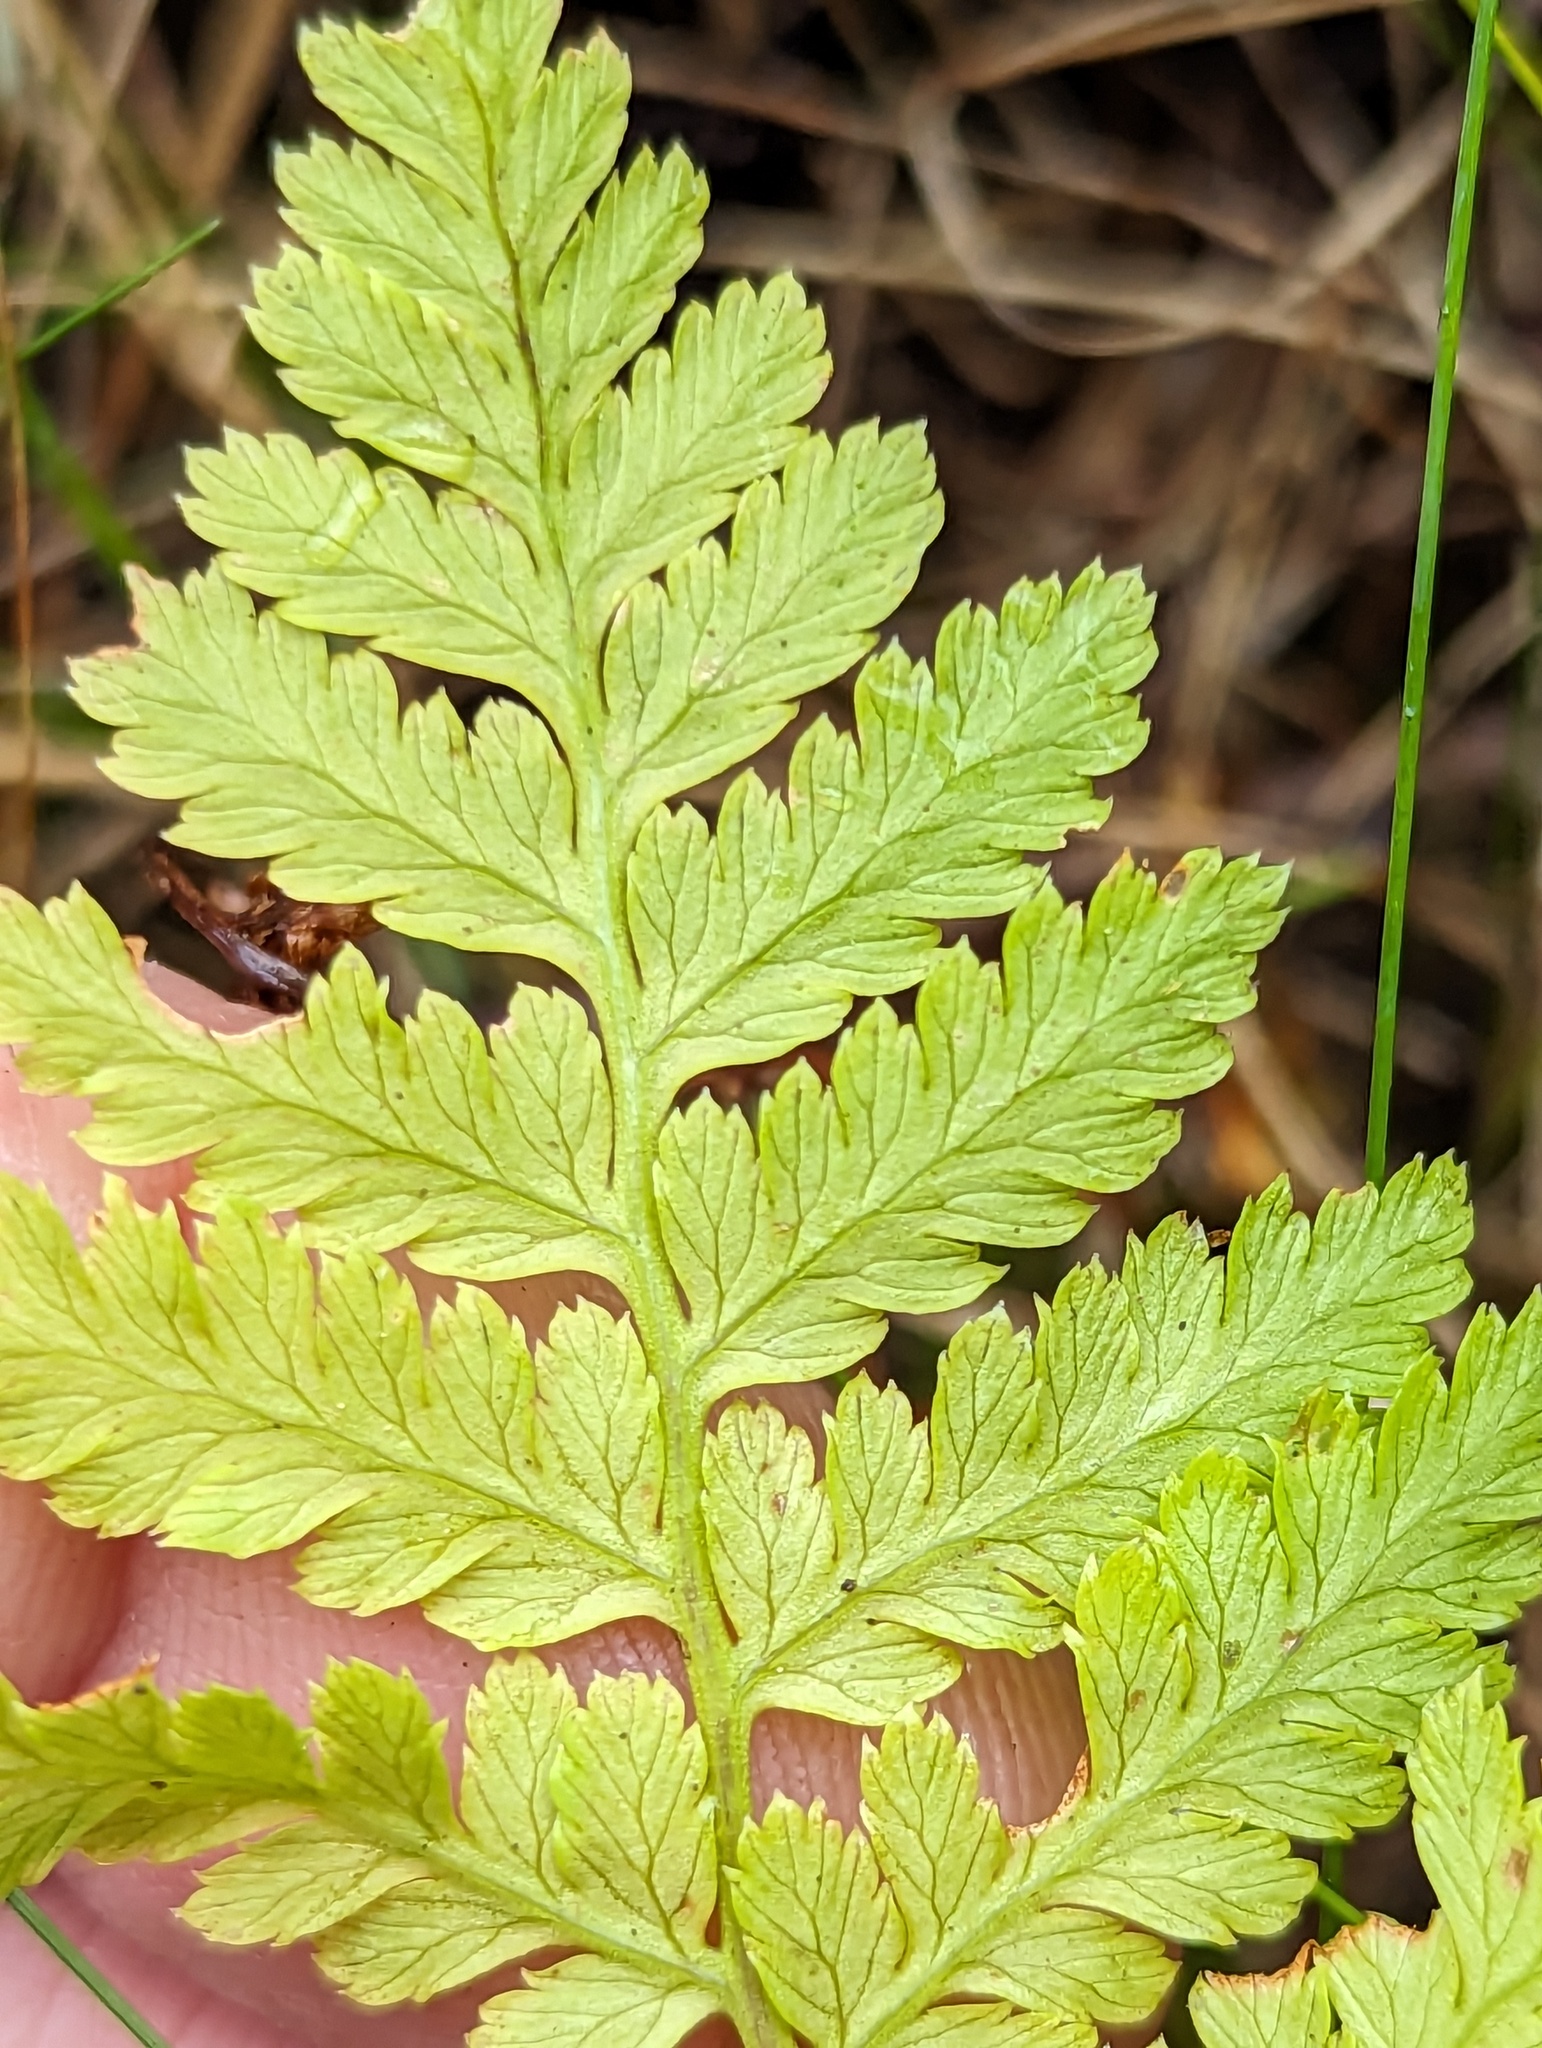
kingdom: Plantae
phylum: Tracheophyta
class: Polypodiopsida
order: Polypodiales
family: Dryopteridaceae
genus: Dryopteris
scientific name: Dryopteris
